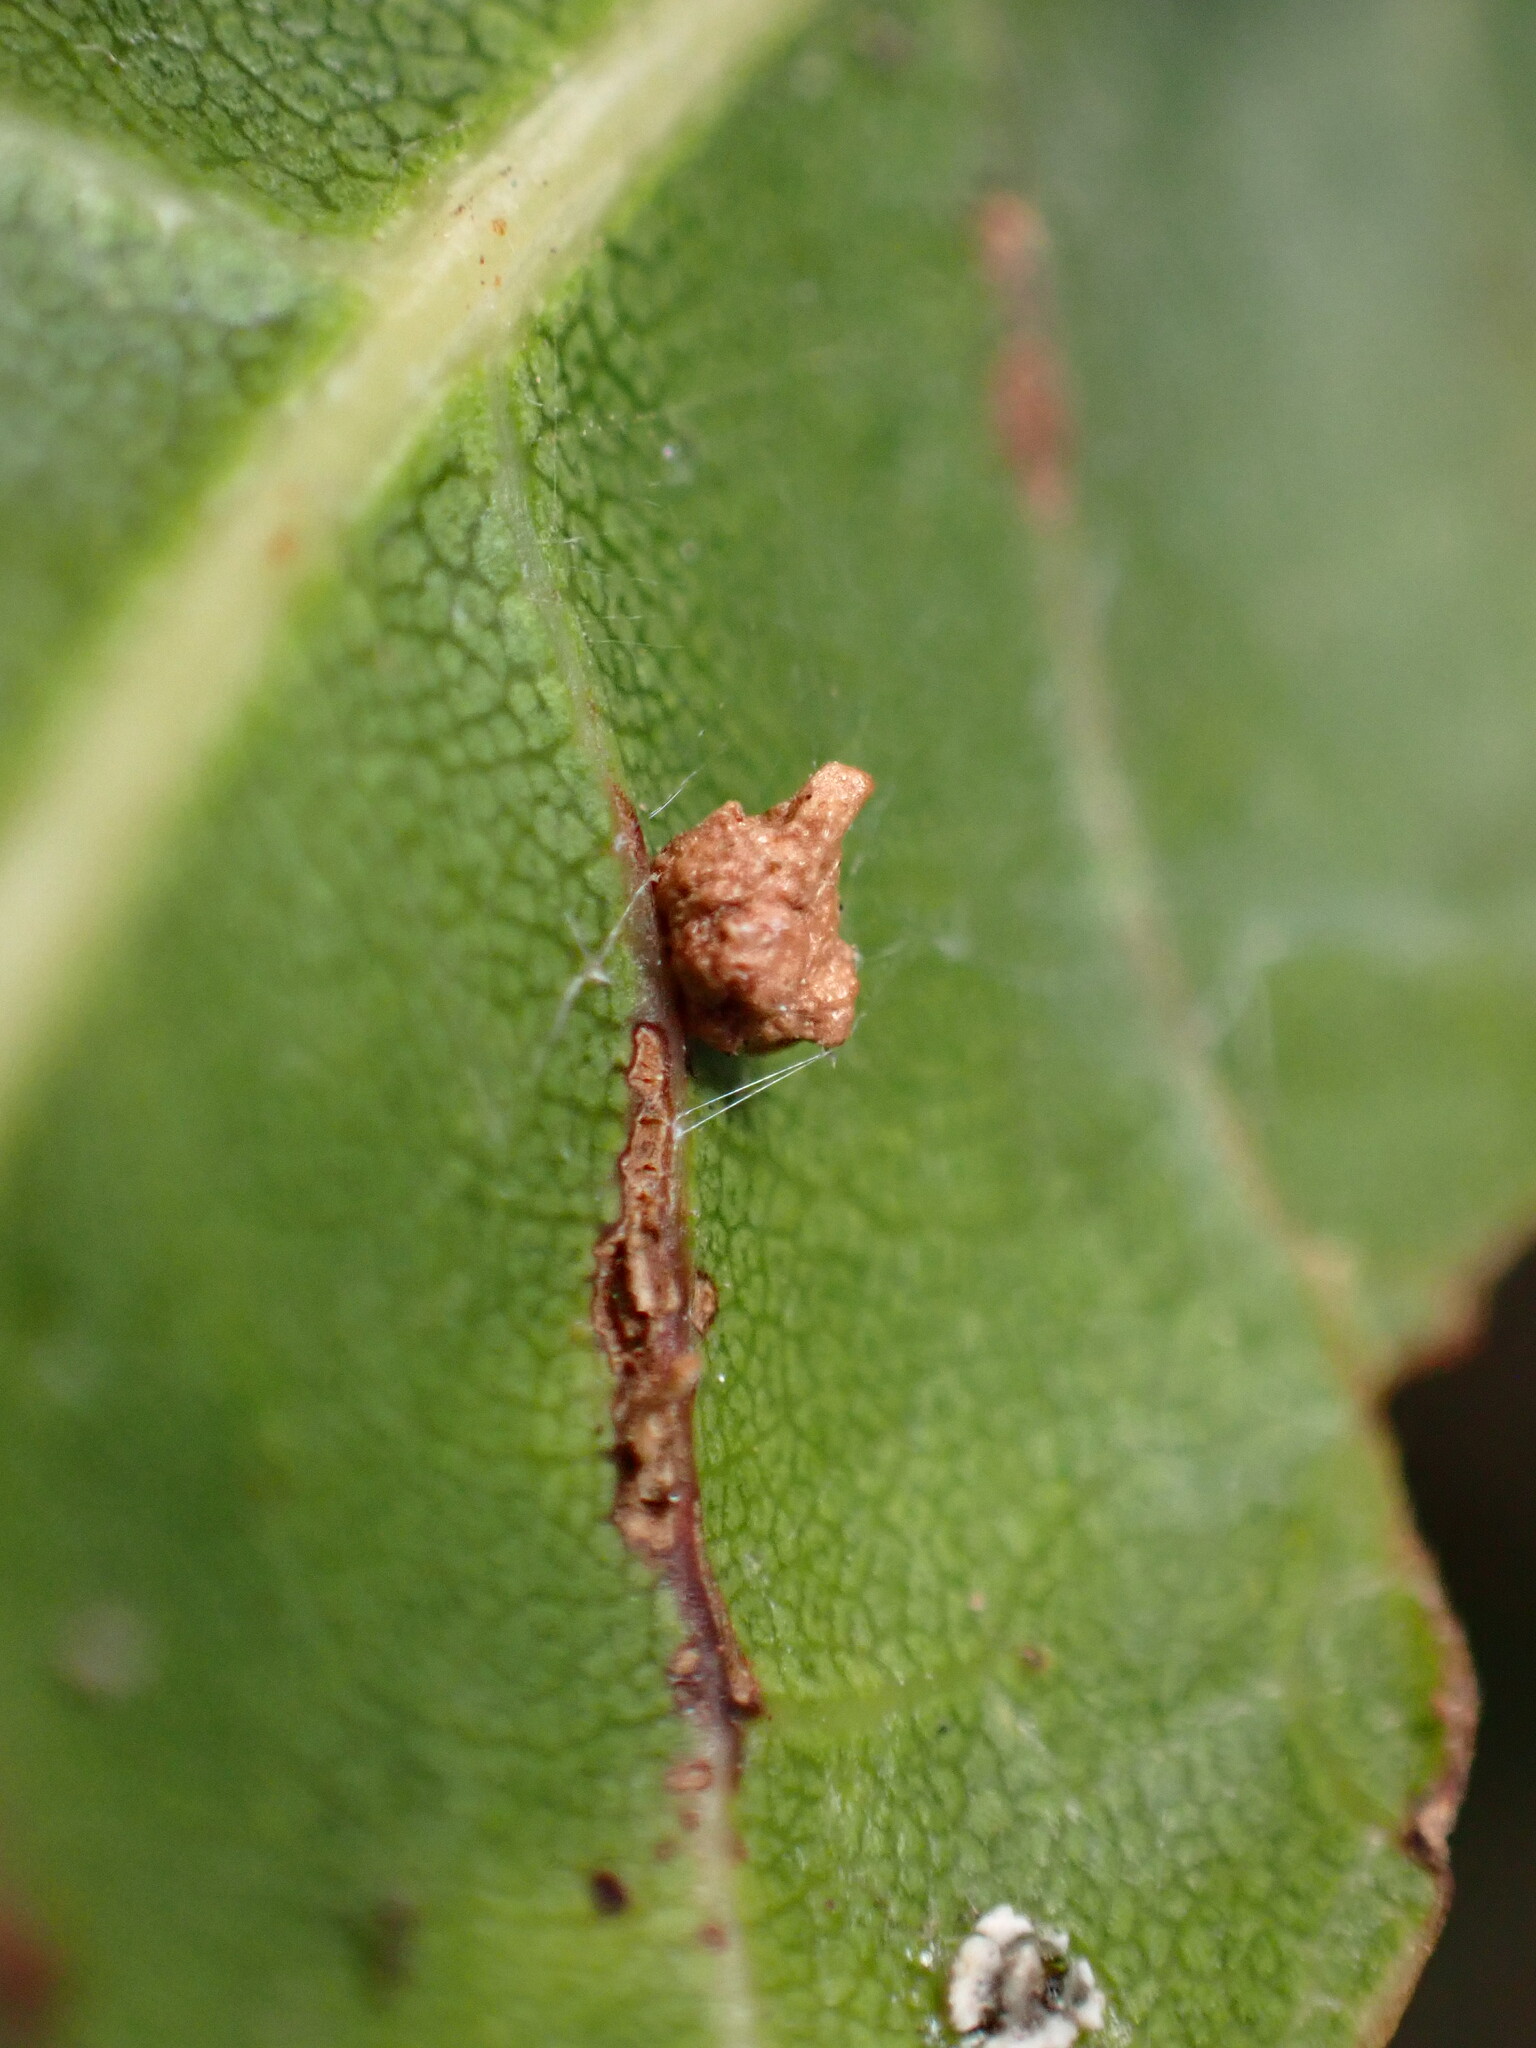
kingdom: Animalia
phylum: Arthropoda
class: Insecta
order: Hymenoptera
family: Cynipidae
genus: Dryocosmus
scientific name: Dryocosmus
